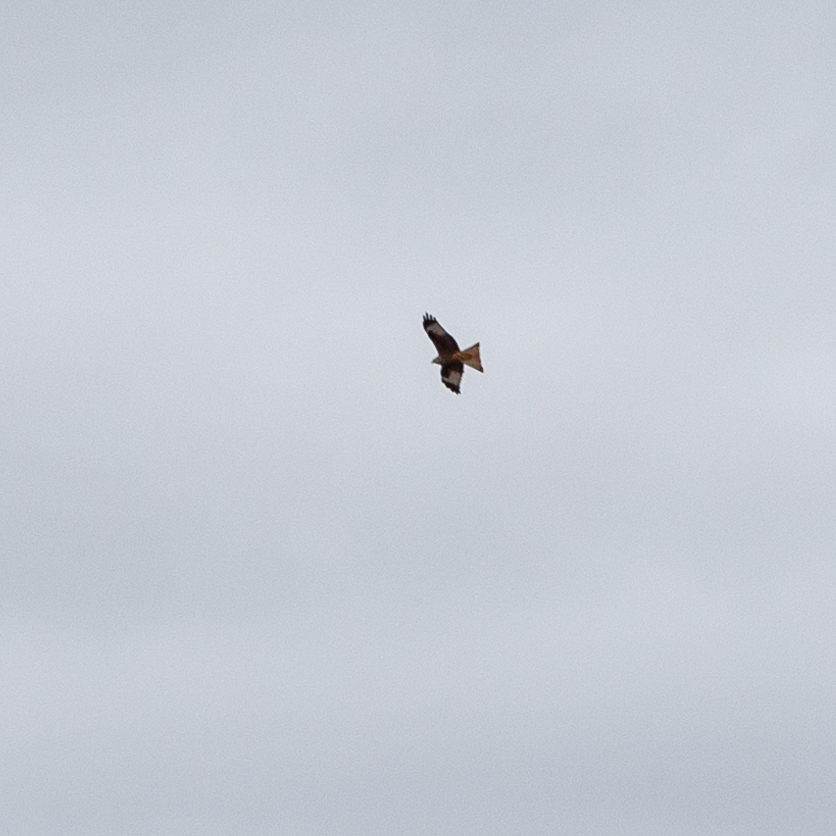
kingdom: Animalia
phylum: Chordata
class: Aves
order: Accipitriformes
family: Accipitridae
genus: Milvus
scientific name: Milvus milvus
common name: Red kite
